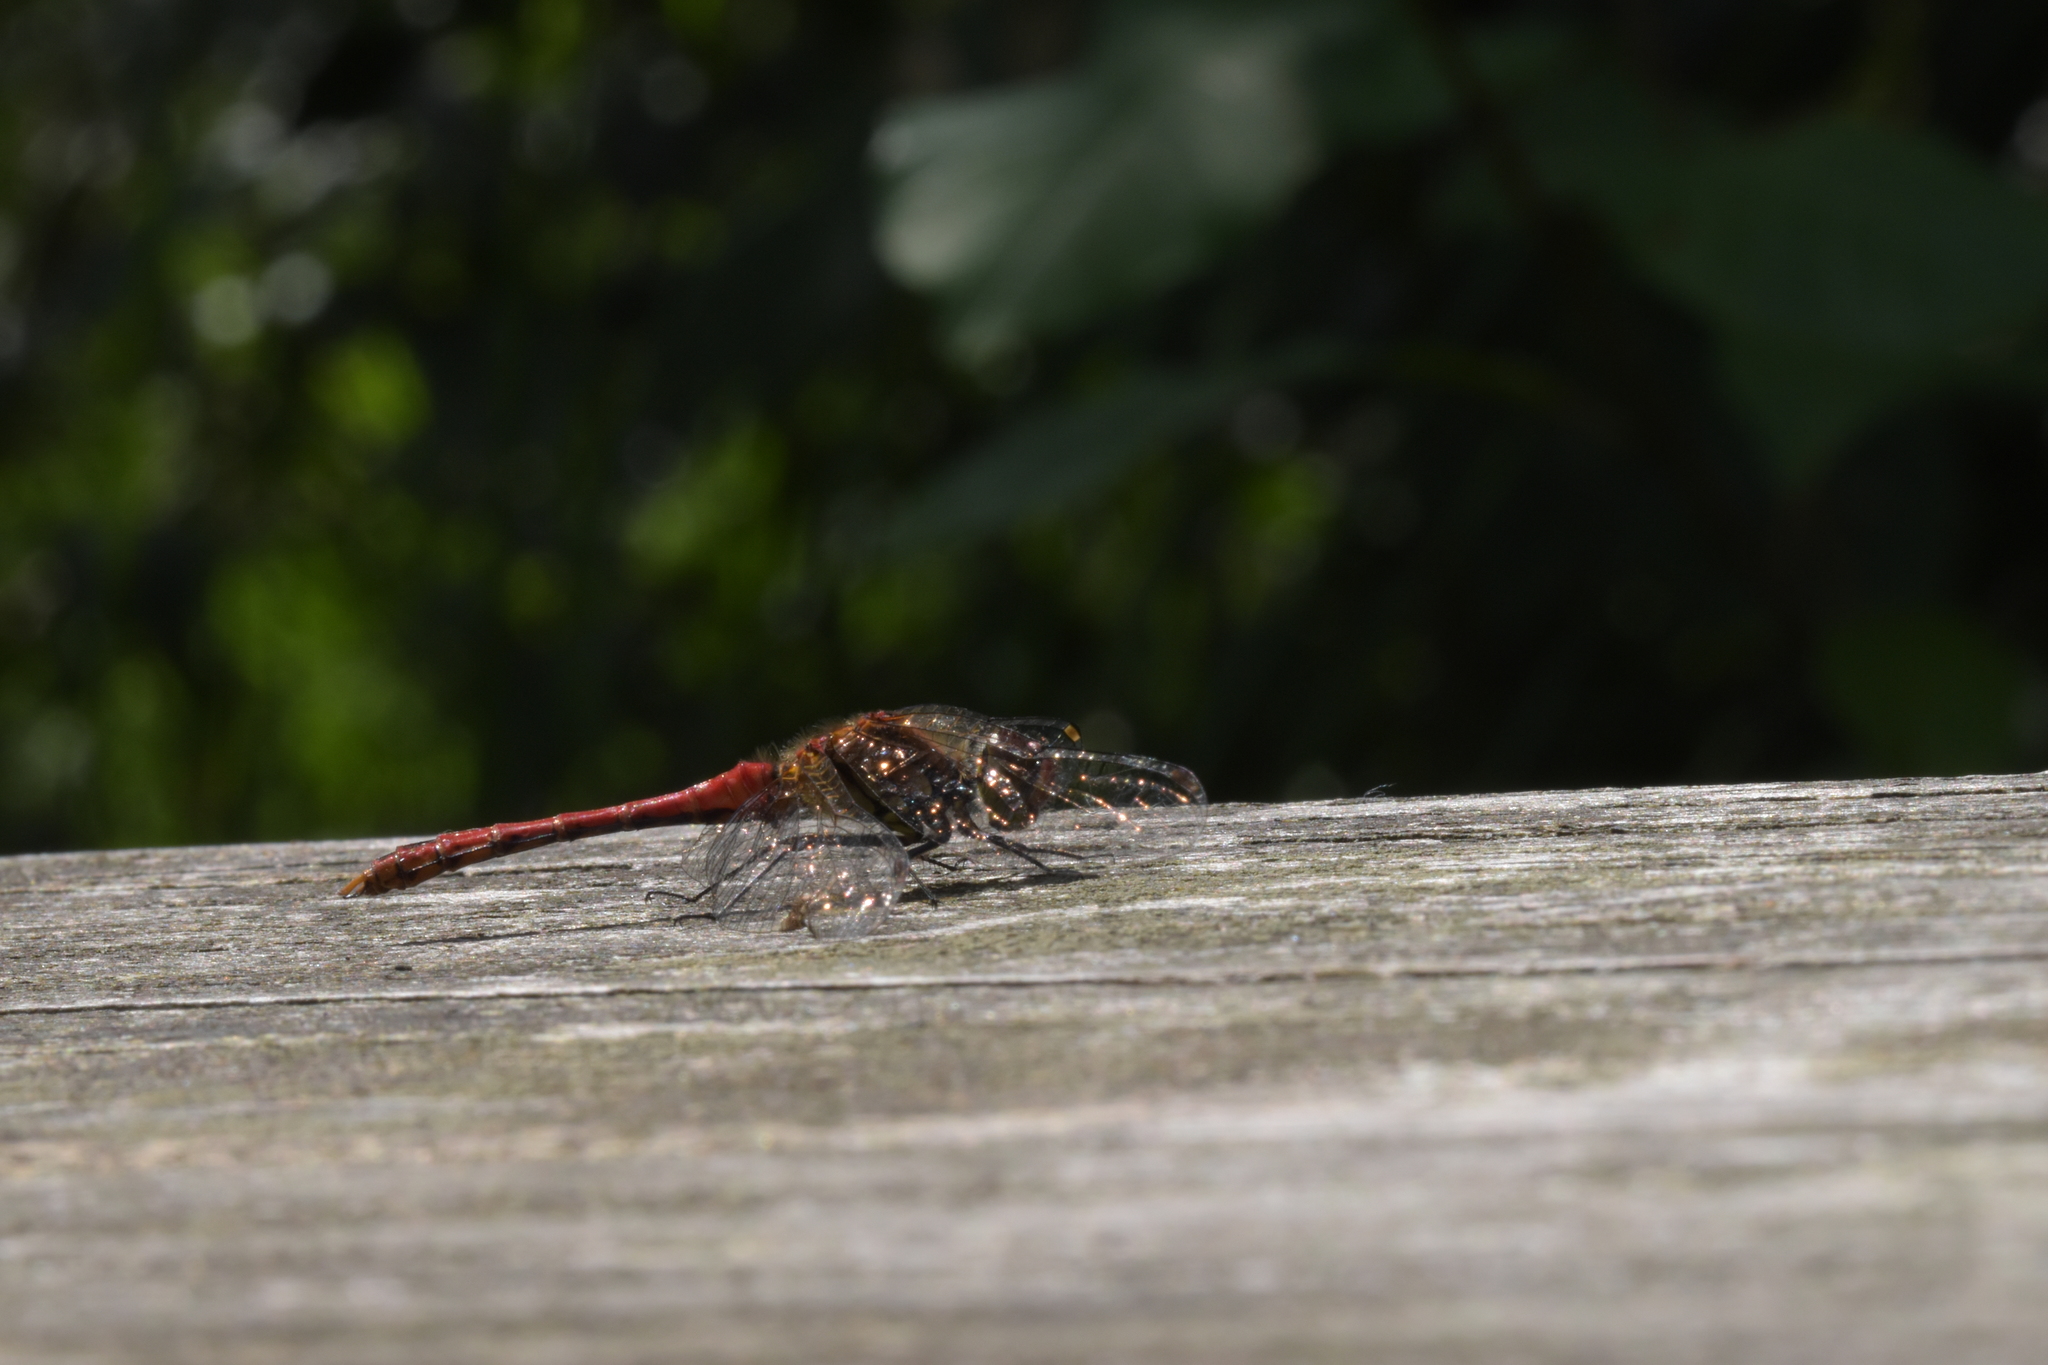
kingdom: Animalia
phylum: Arthropoda
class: Insecta
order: Odonata
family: Libellulidae
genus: Sympetrum
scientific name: Sympetrum sanguineum
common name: Ruddy darter
